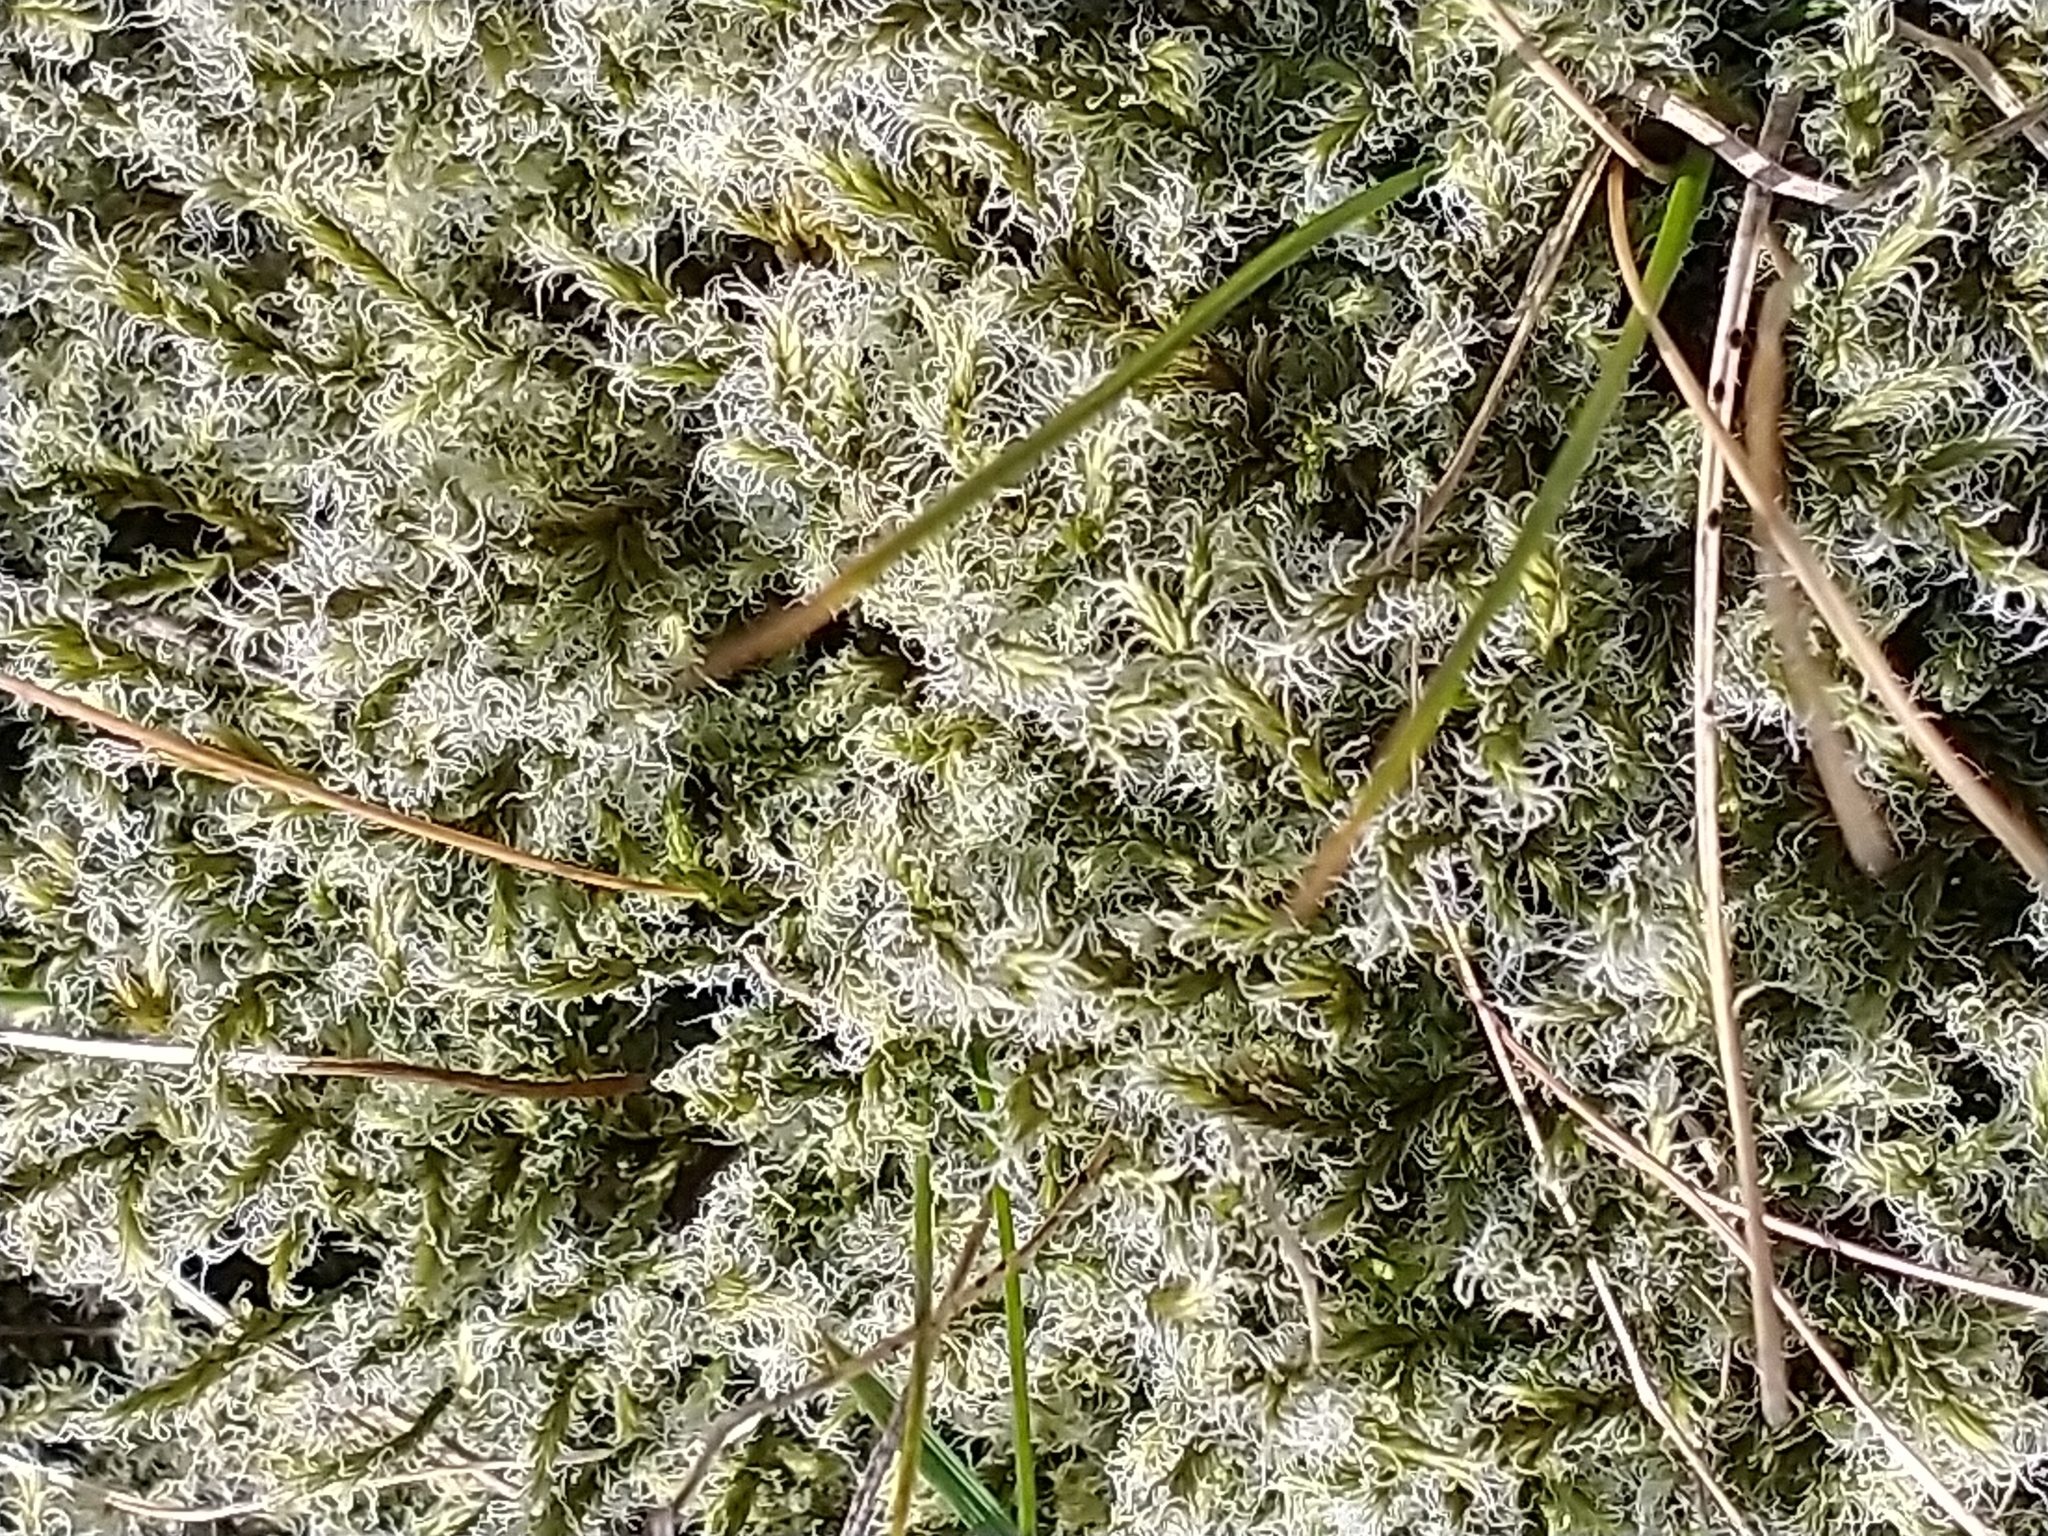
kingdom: Plantae
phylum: Bryophyta
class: Bryopsida
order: Grimmiales
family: Grimmiaceae
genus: Racomitrium
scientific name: Racomitrium lanuginosum
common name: Hoary rock moss
